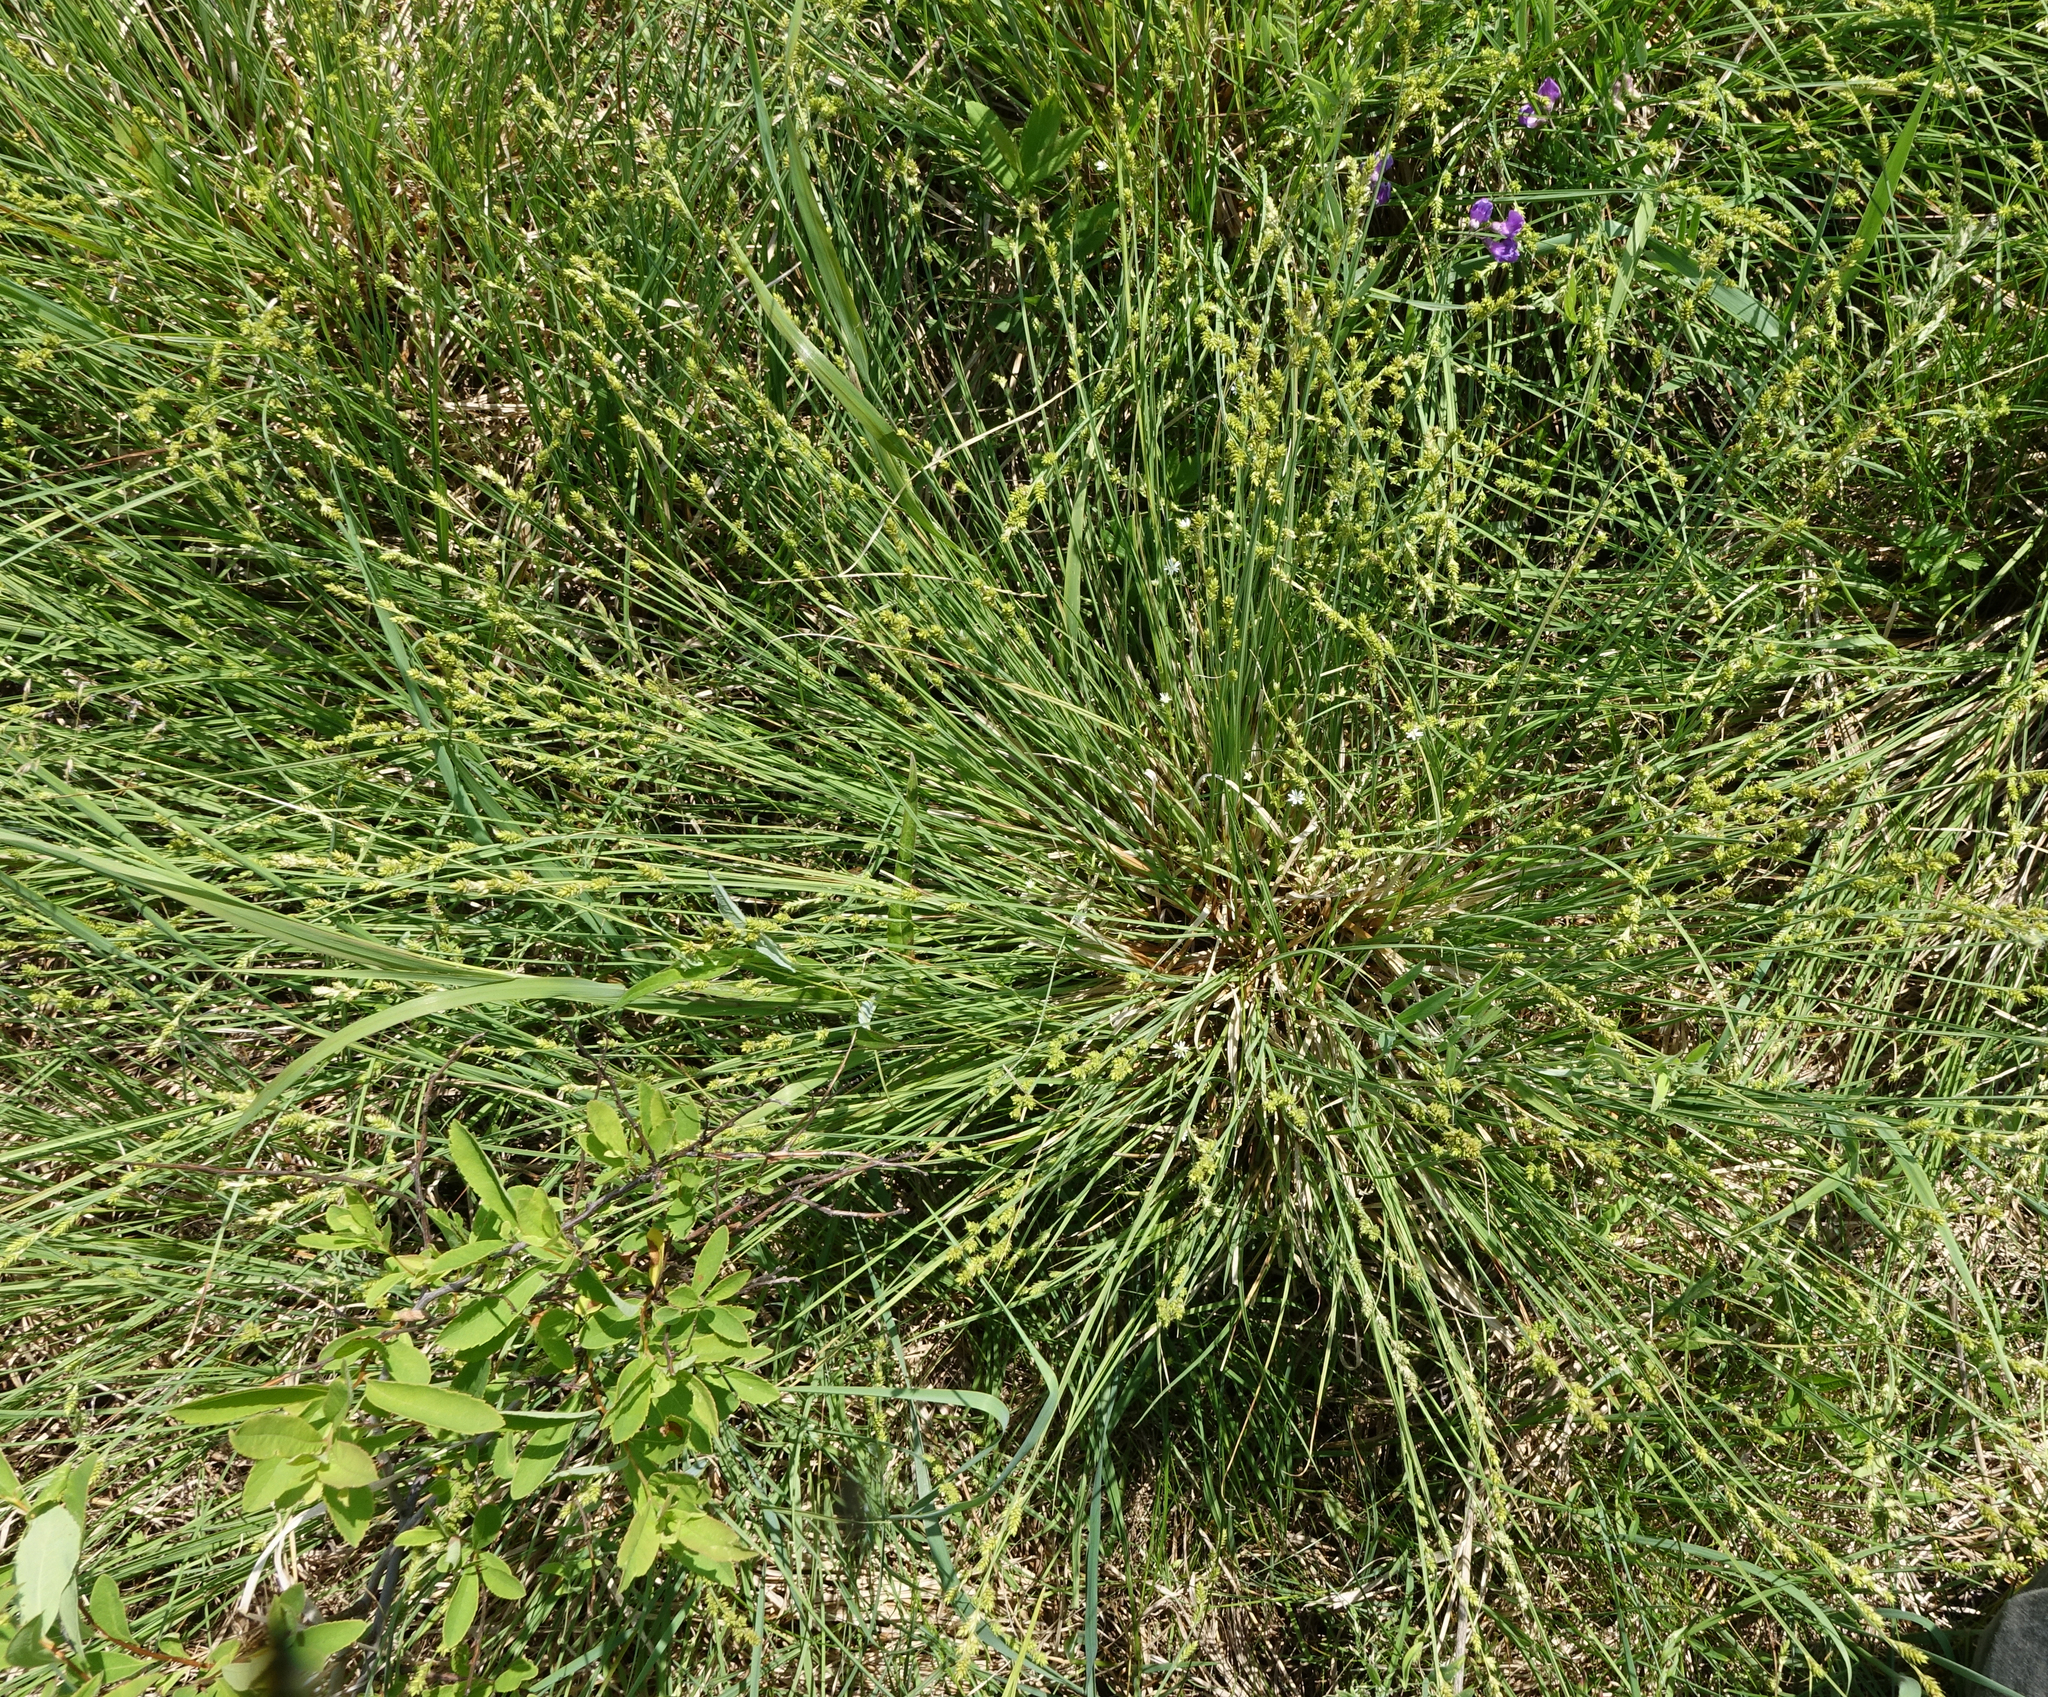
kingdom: Plantae
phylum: Tracheophyta
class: Liliopsida
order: Poales
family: Cyperaceae
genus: Carex
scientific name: Carex canescens
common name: White sedge
